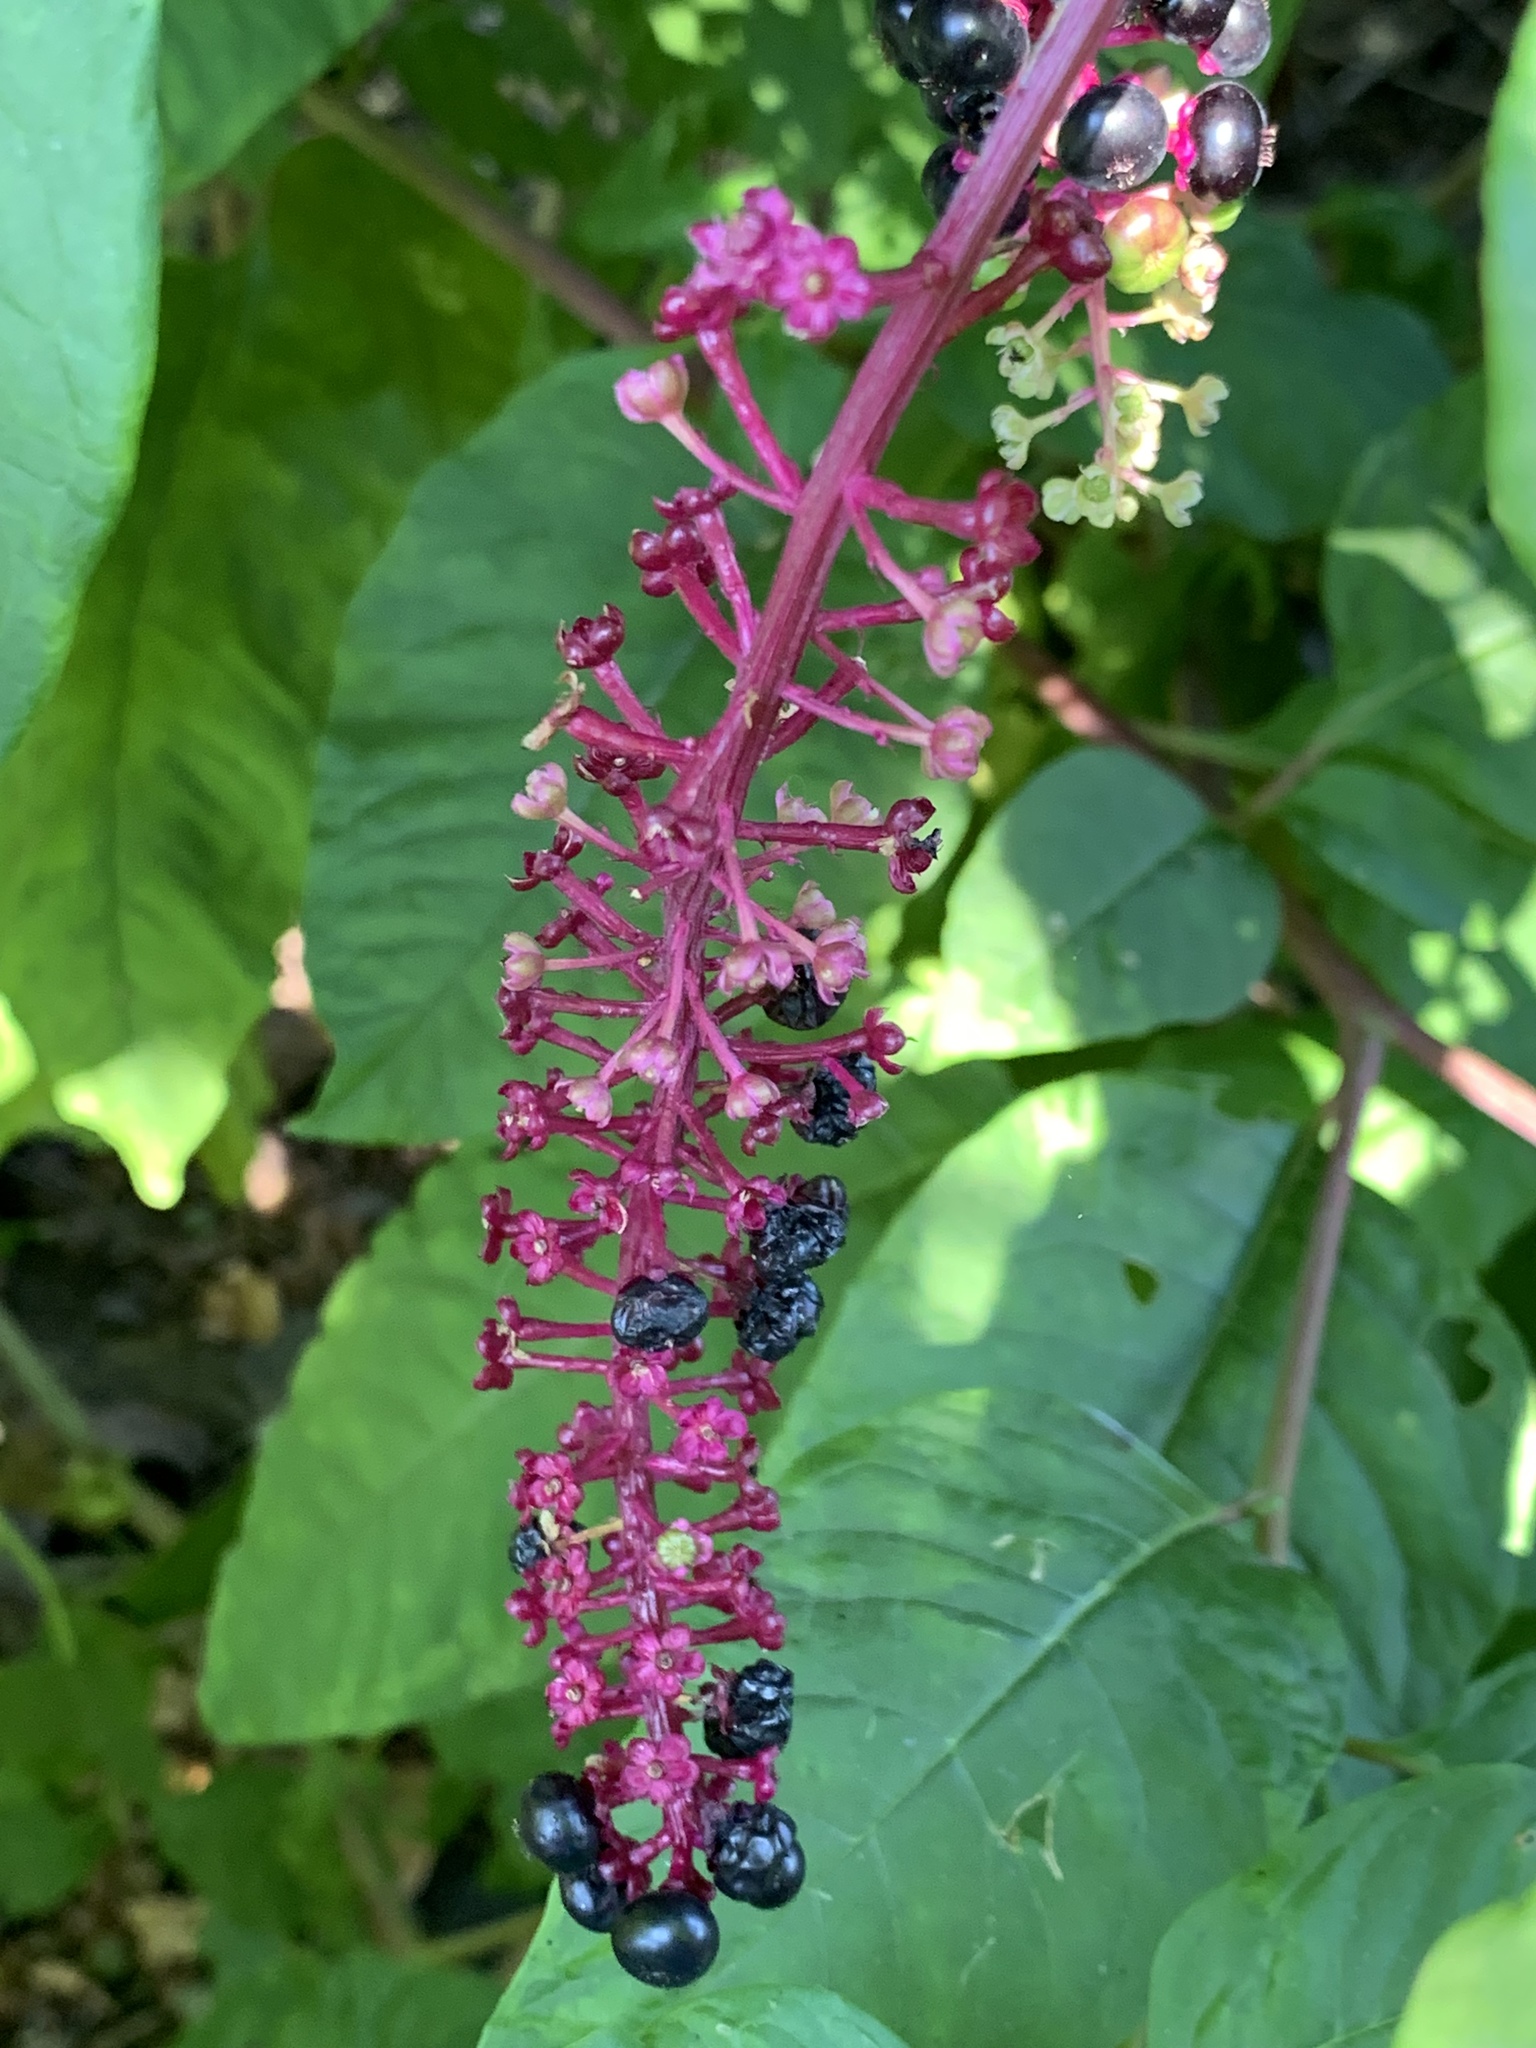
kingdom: Plantae
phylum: Tracheophyta
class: Magnoliopsida
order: Caryophyllales
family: Phytolaccaceae
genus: Phytolacca
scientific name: Phytolacca americana
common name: American pokeweed
